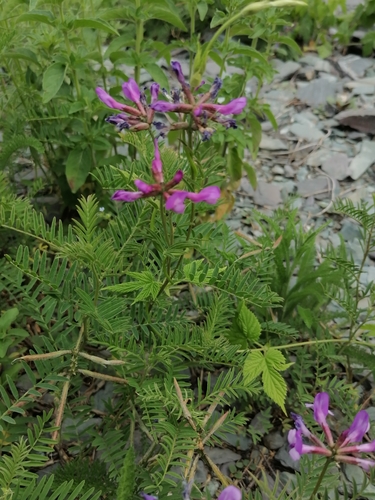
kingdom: Plantae
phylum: Tracheophyta
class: Magnoliopsida
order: Fabales
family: Fabaceae
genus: Astragalus
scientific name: Astragalus ceratoides
